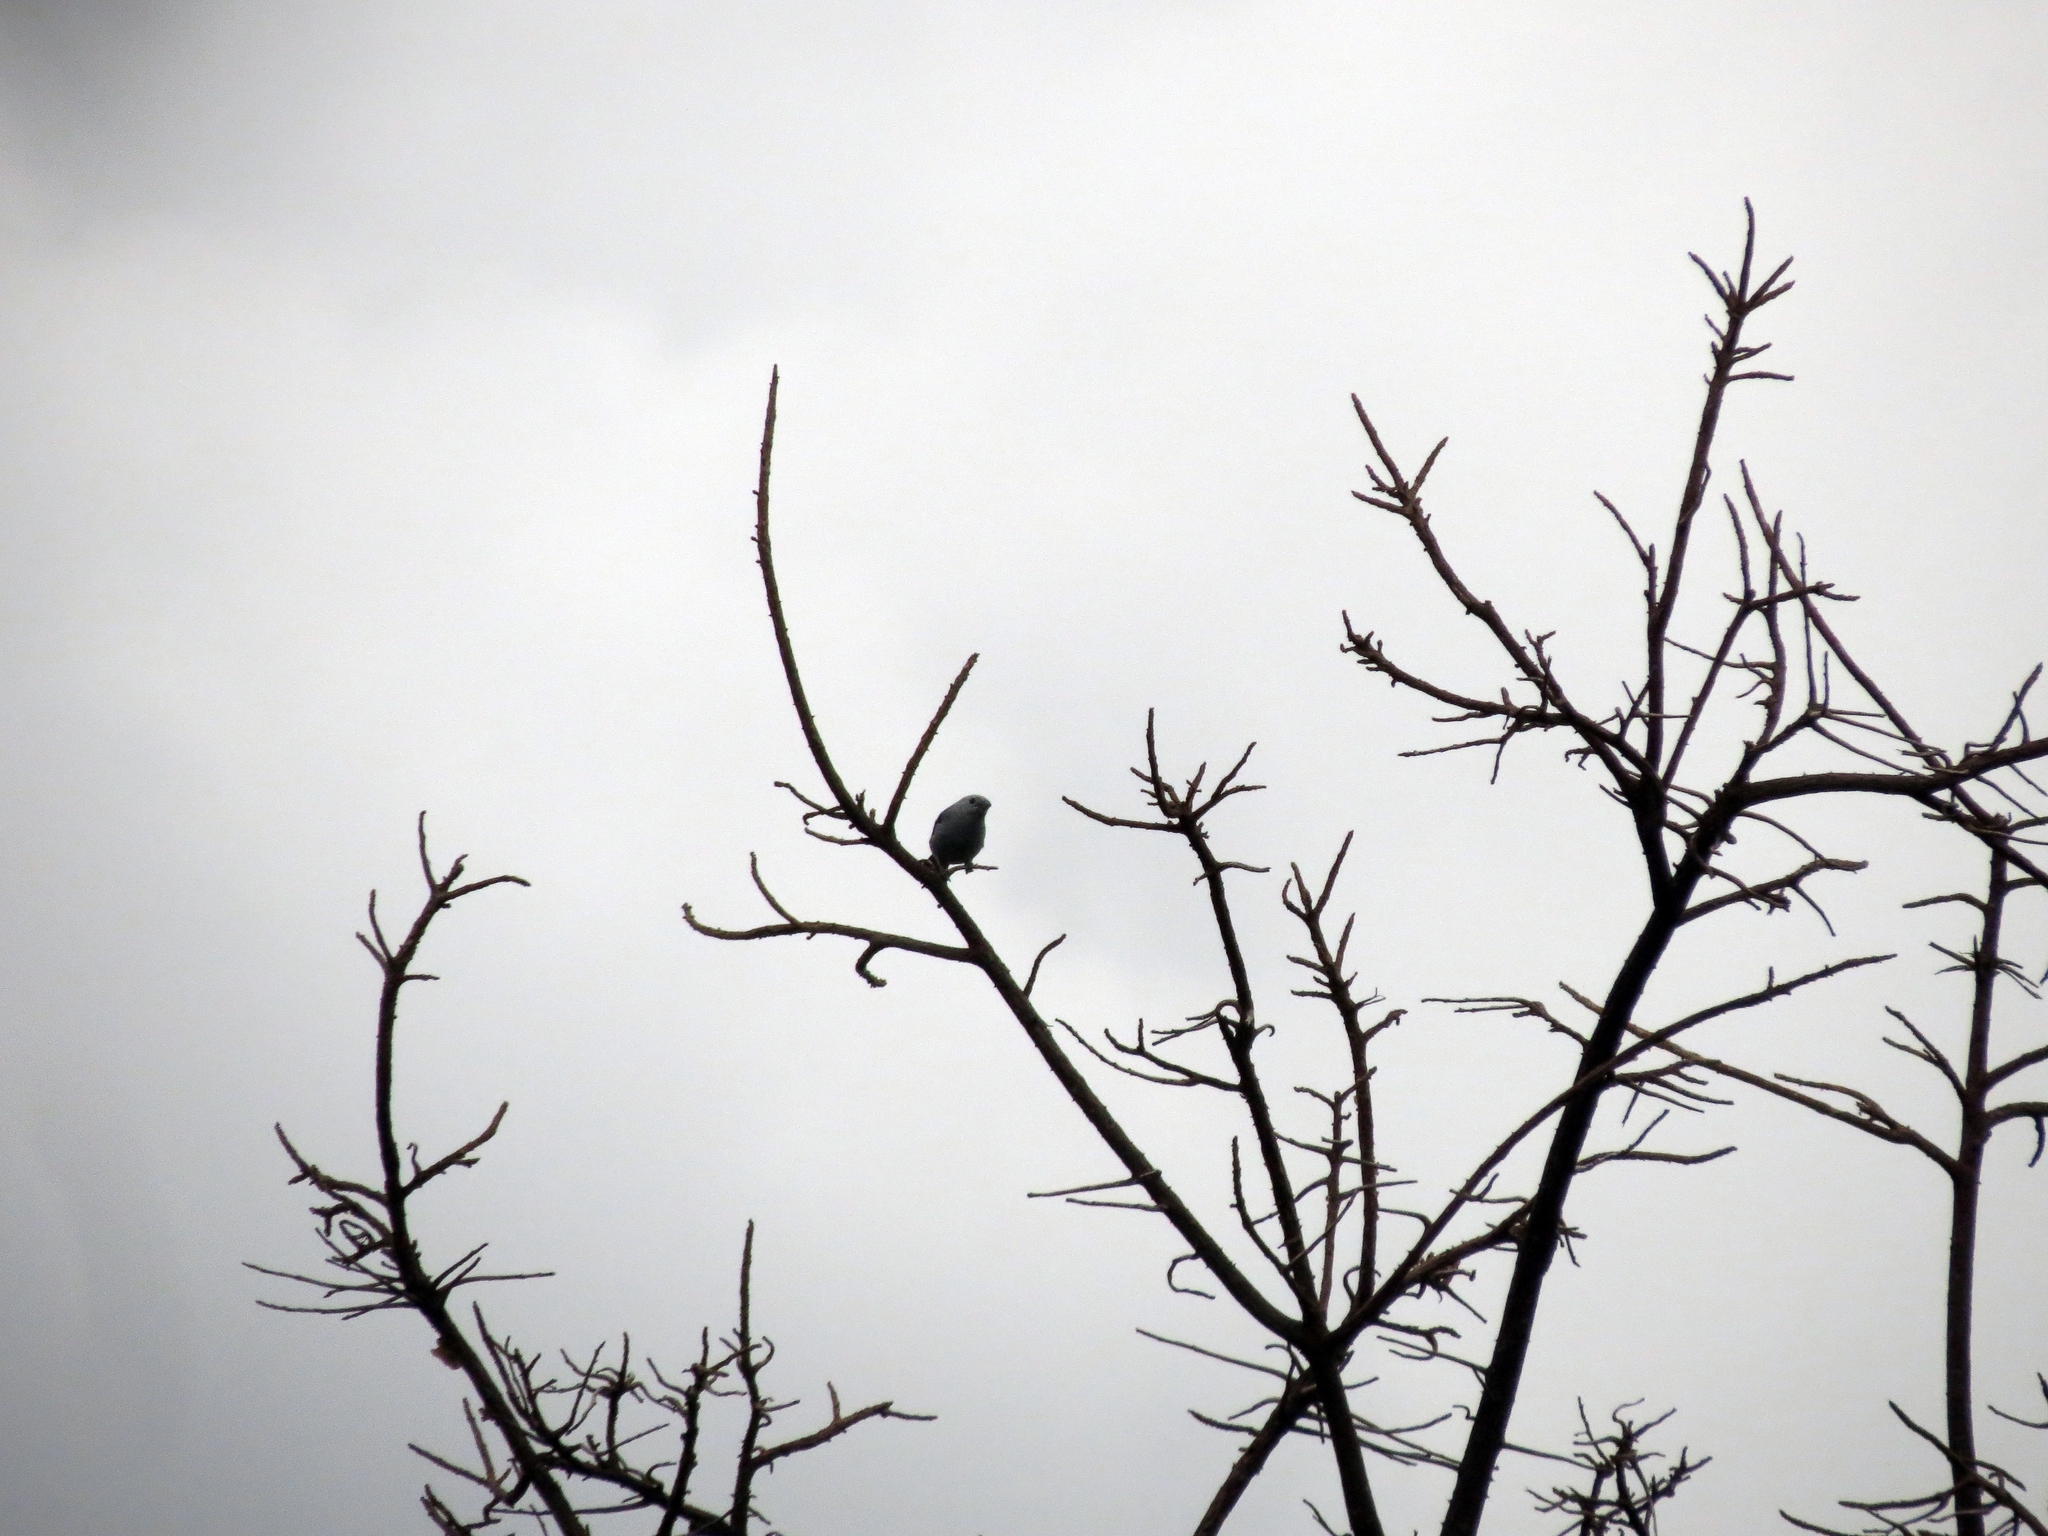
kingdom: Animalia
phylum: Chordata
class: Aves
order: Passeriformes
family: Thraupidae
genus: Thraupis
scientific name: Thraupis episcopus
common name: Blue-grey tanager
